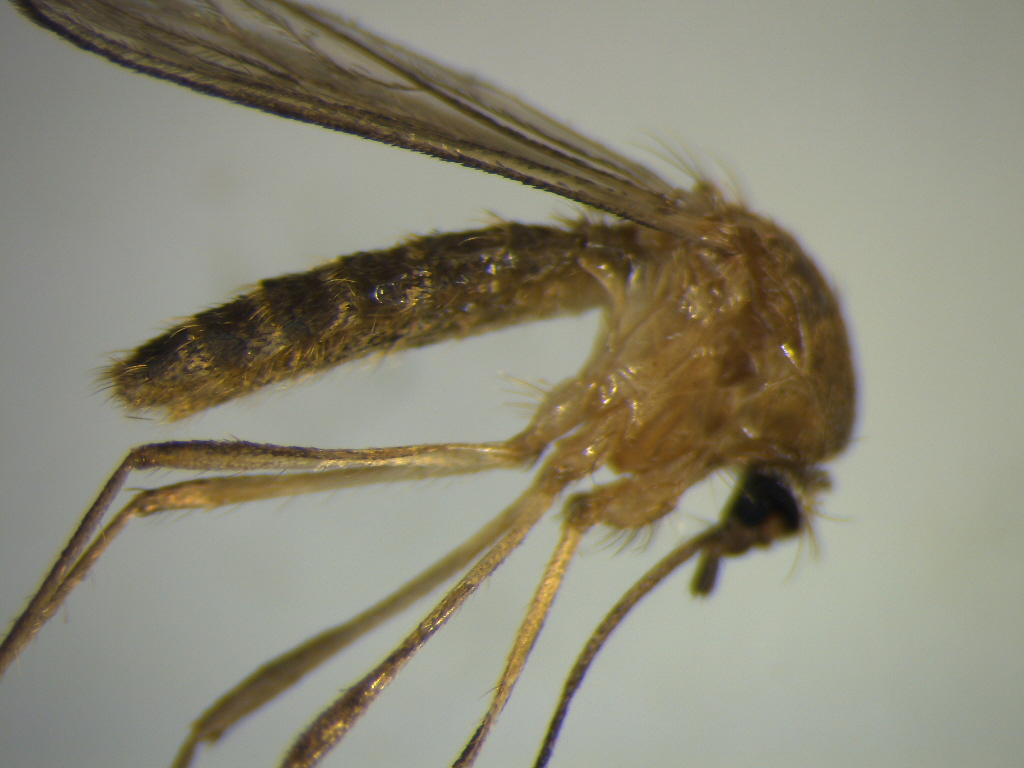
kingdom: Animalia
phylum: Arthropoda
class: Insecta
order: Diptera
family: Culicidae
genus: Culex
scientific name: Culex quinquefasciatus
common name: Southern house mosquito
